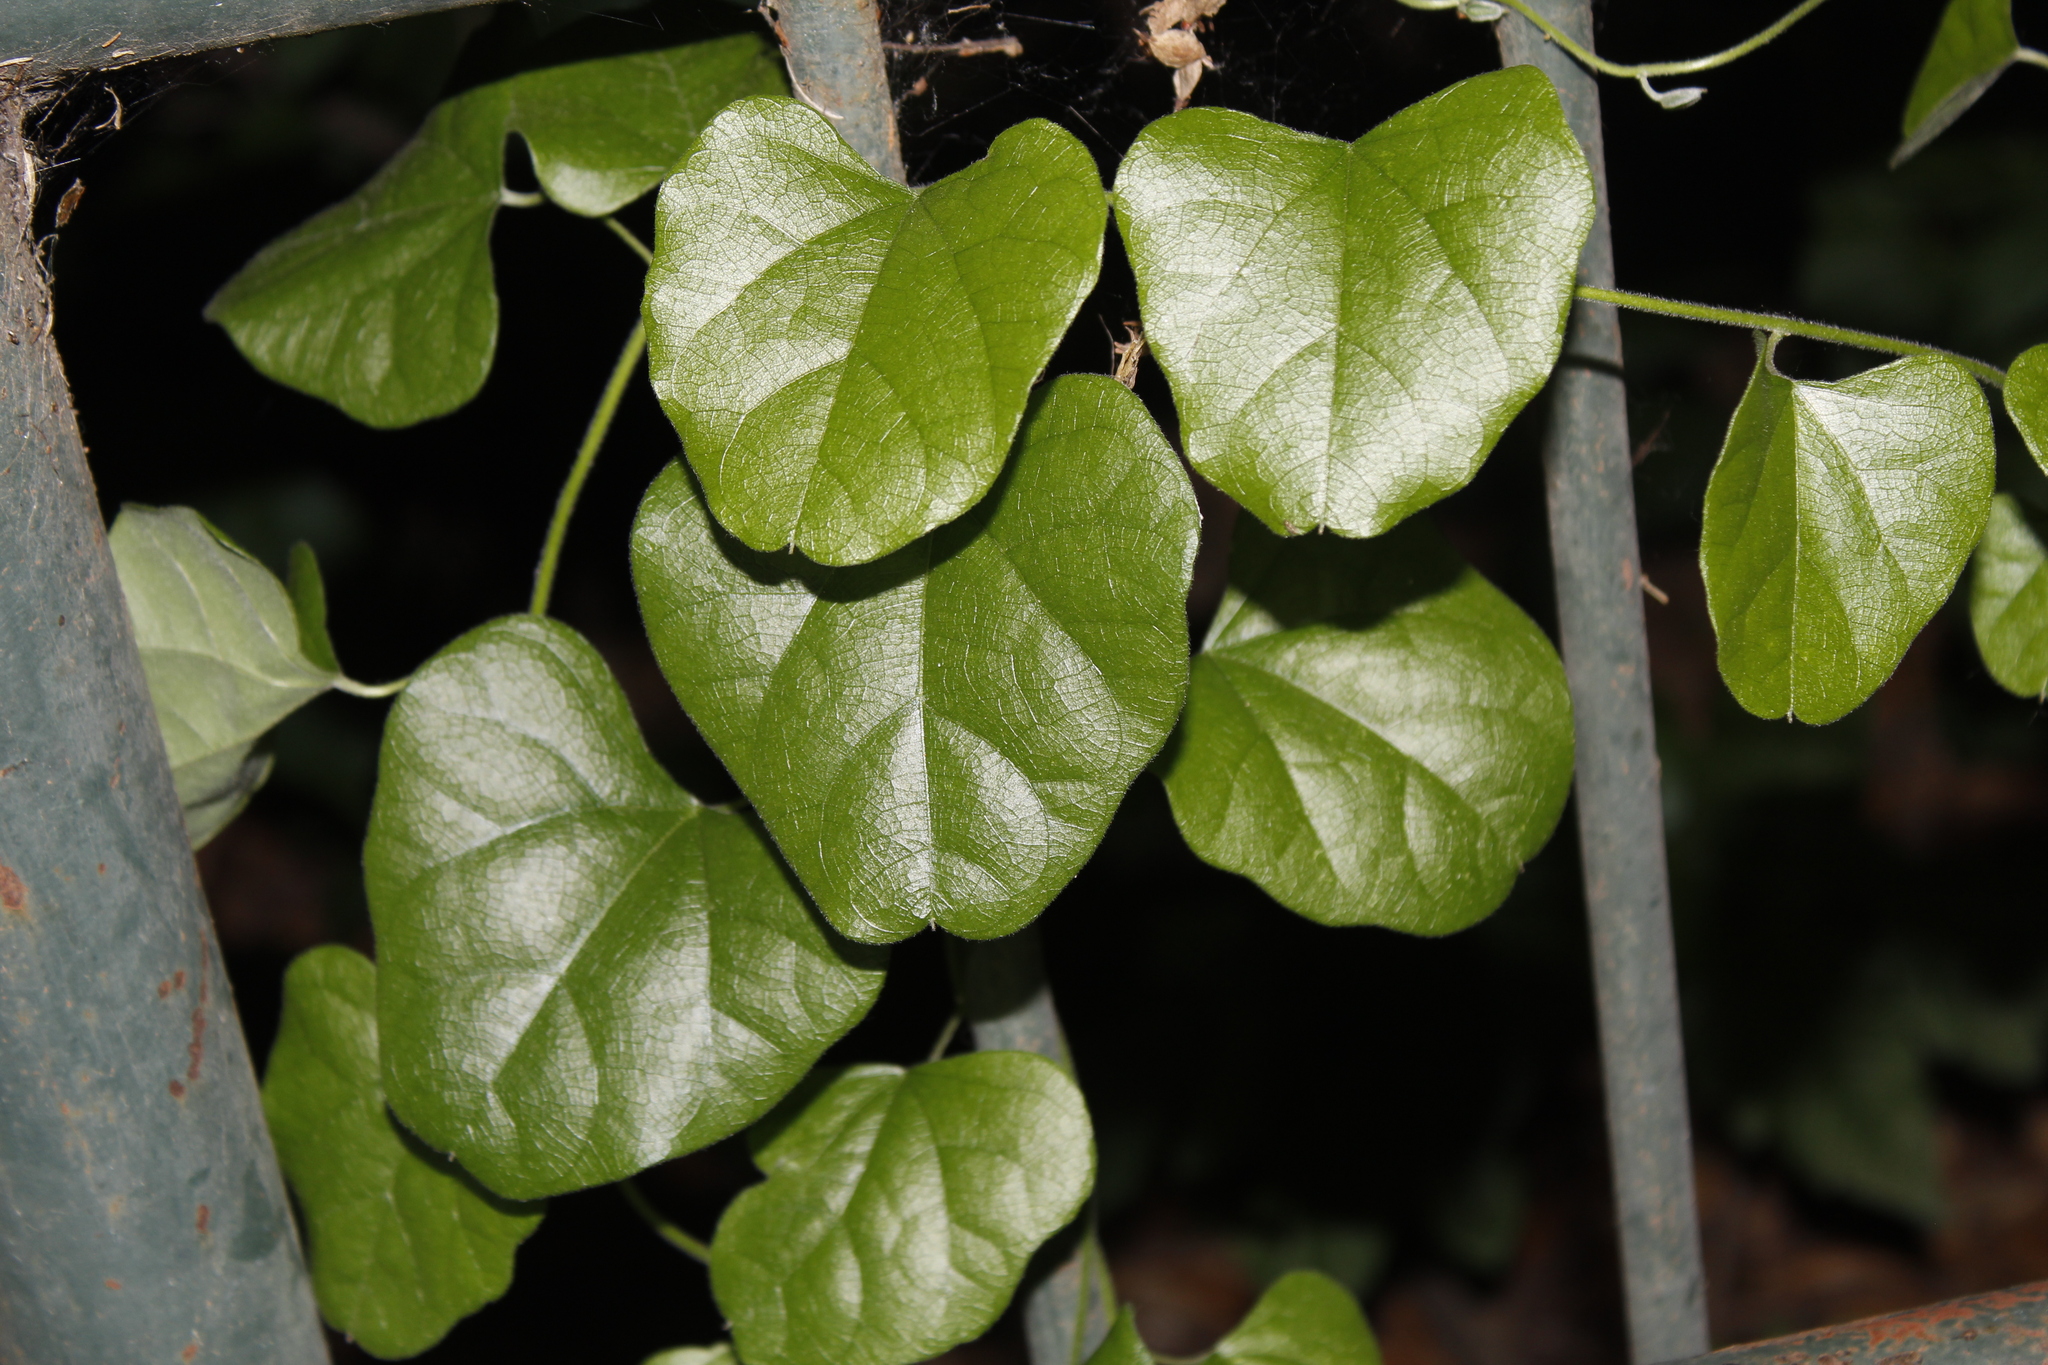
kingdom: Plantae
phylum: Tracheophyta
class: Magnoliopsida
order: Ranunculales
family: Menispermaceae
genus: Cocculus
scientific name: Cocculus carolinus
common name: Carolina moonseed
